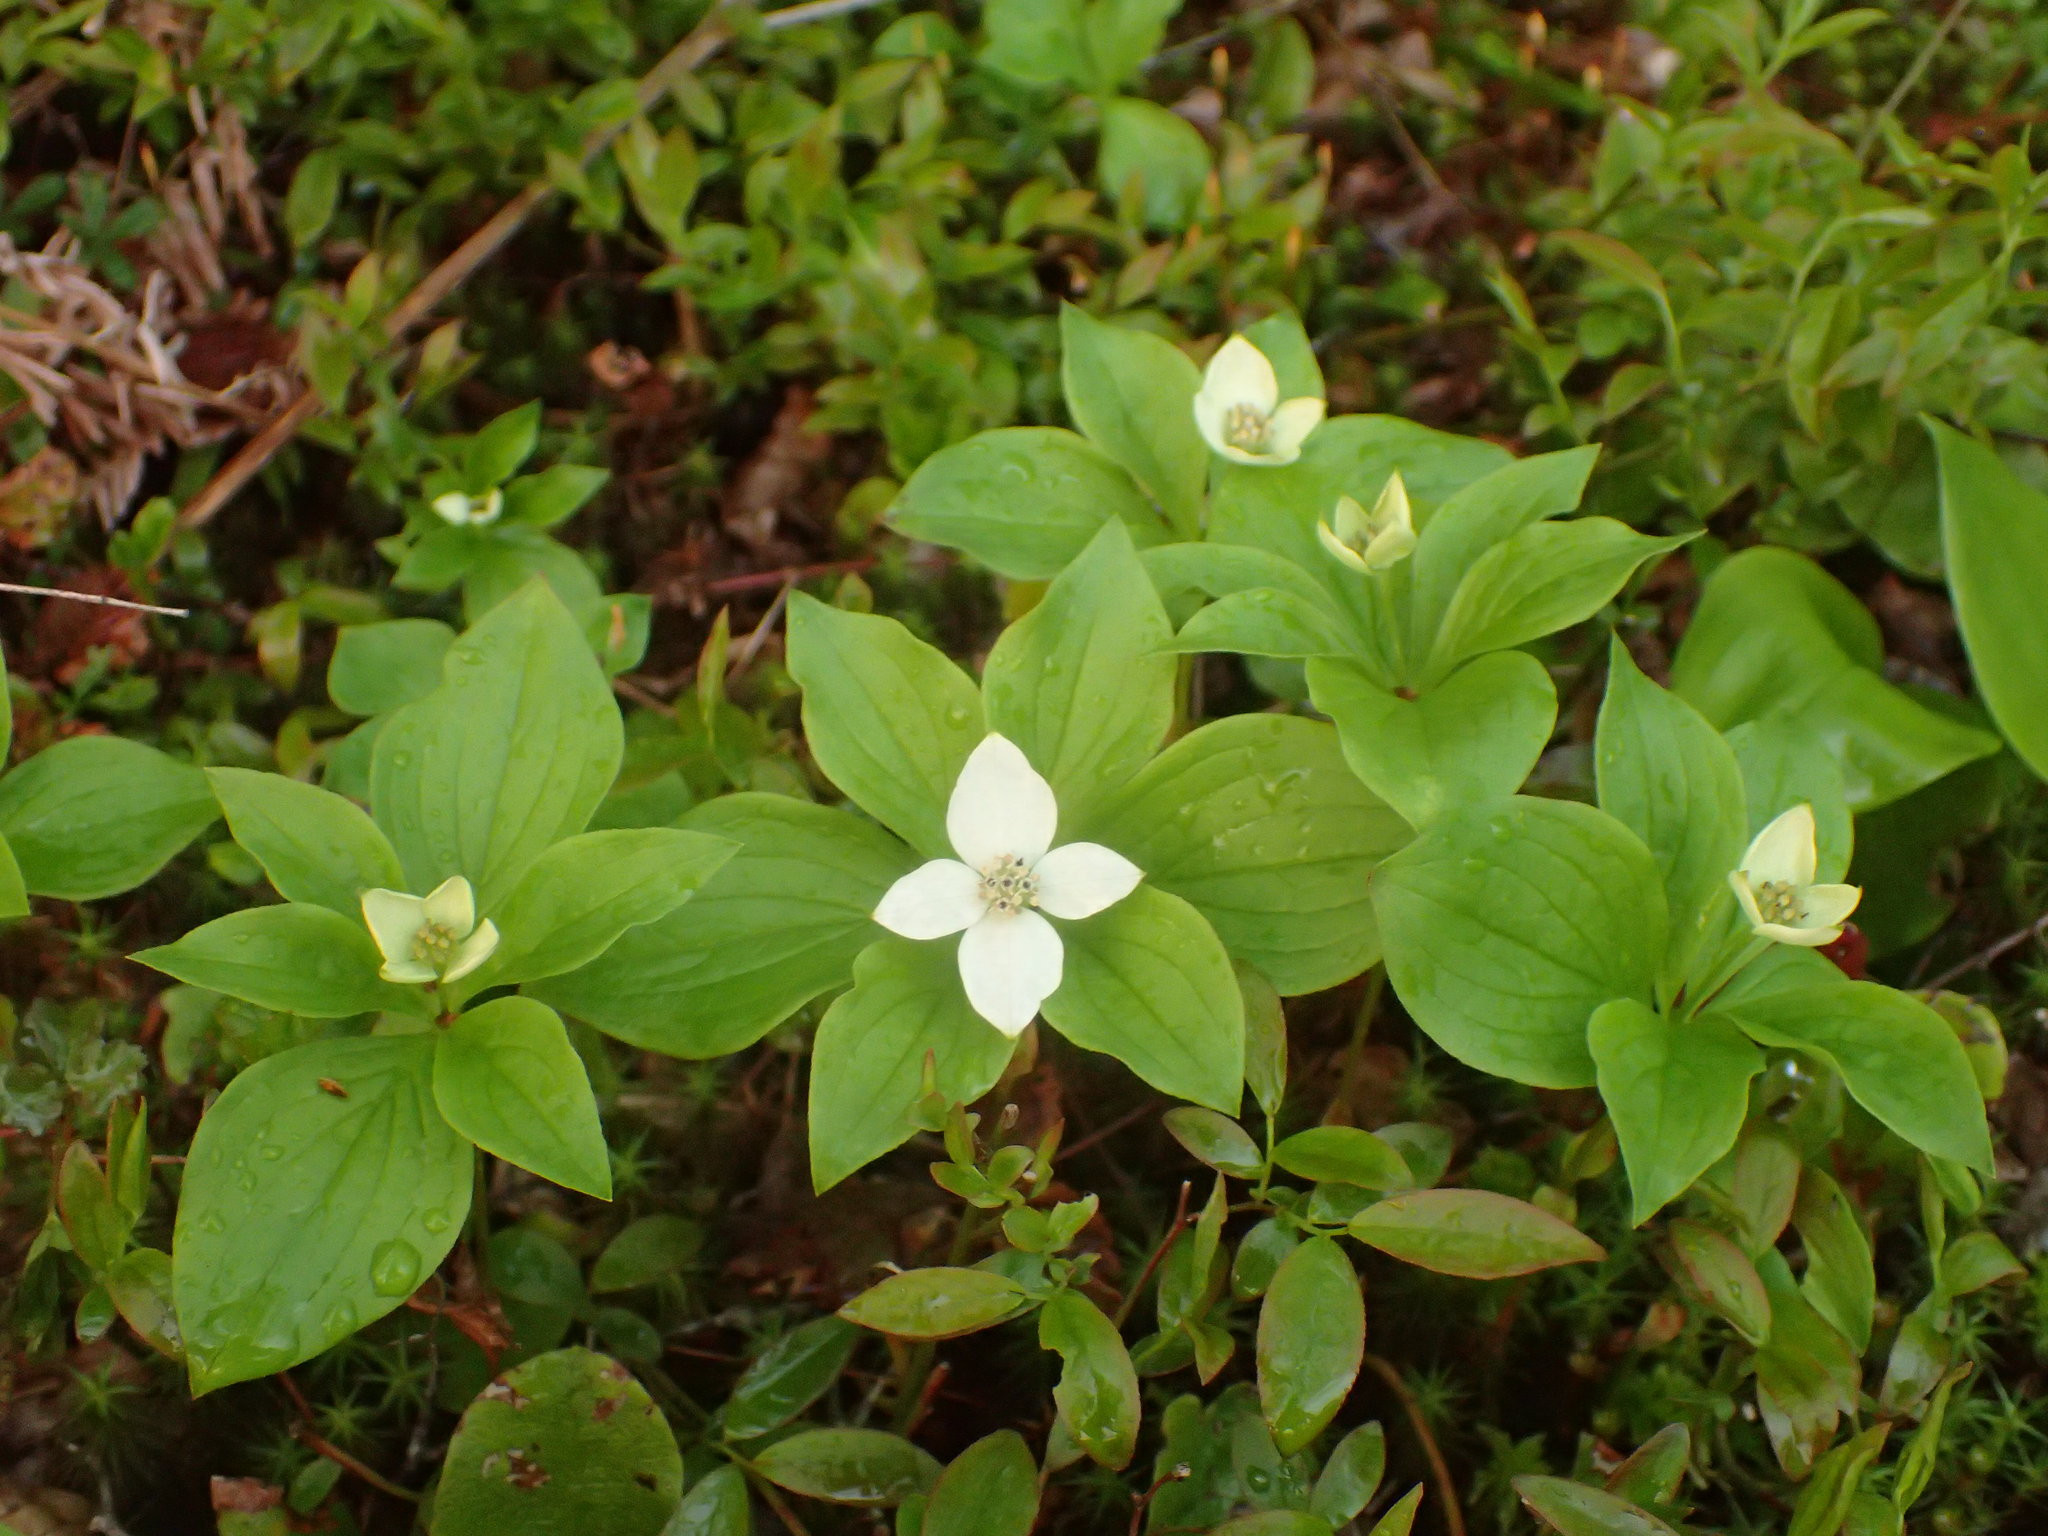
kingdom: Plantae
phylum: Tracheophyta
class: Magnoliopsida
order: Cornales
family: Cornaceae
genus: Cornus
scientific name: Cornus canadensis
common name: Creeping dogwood
